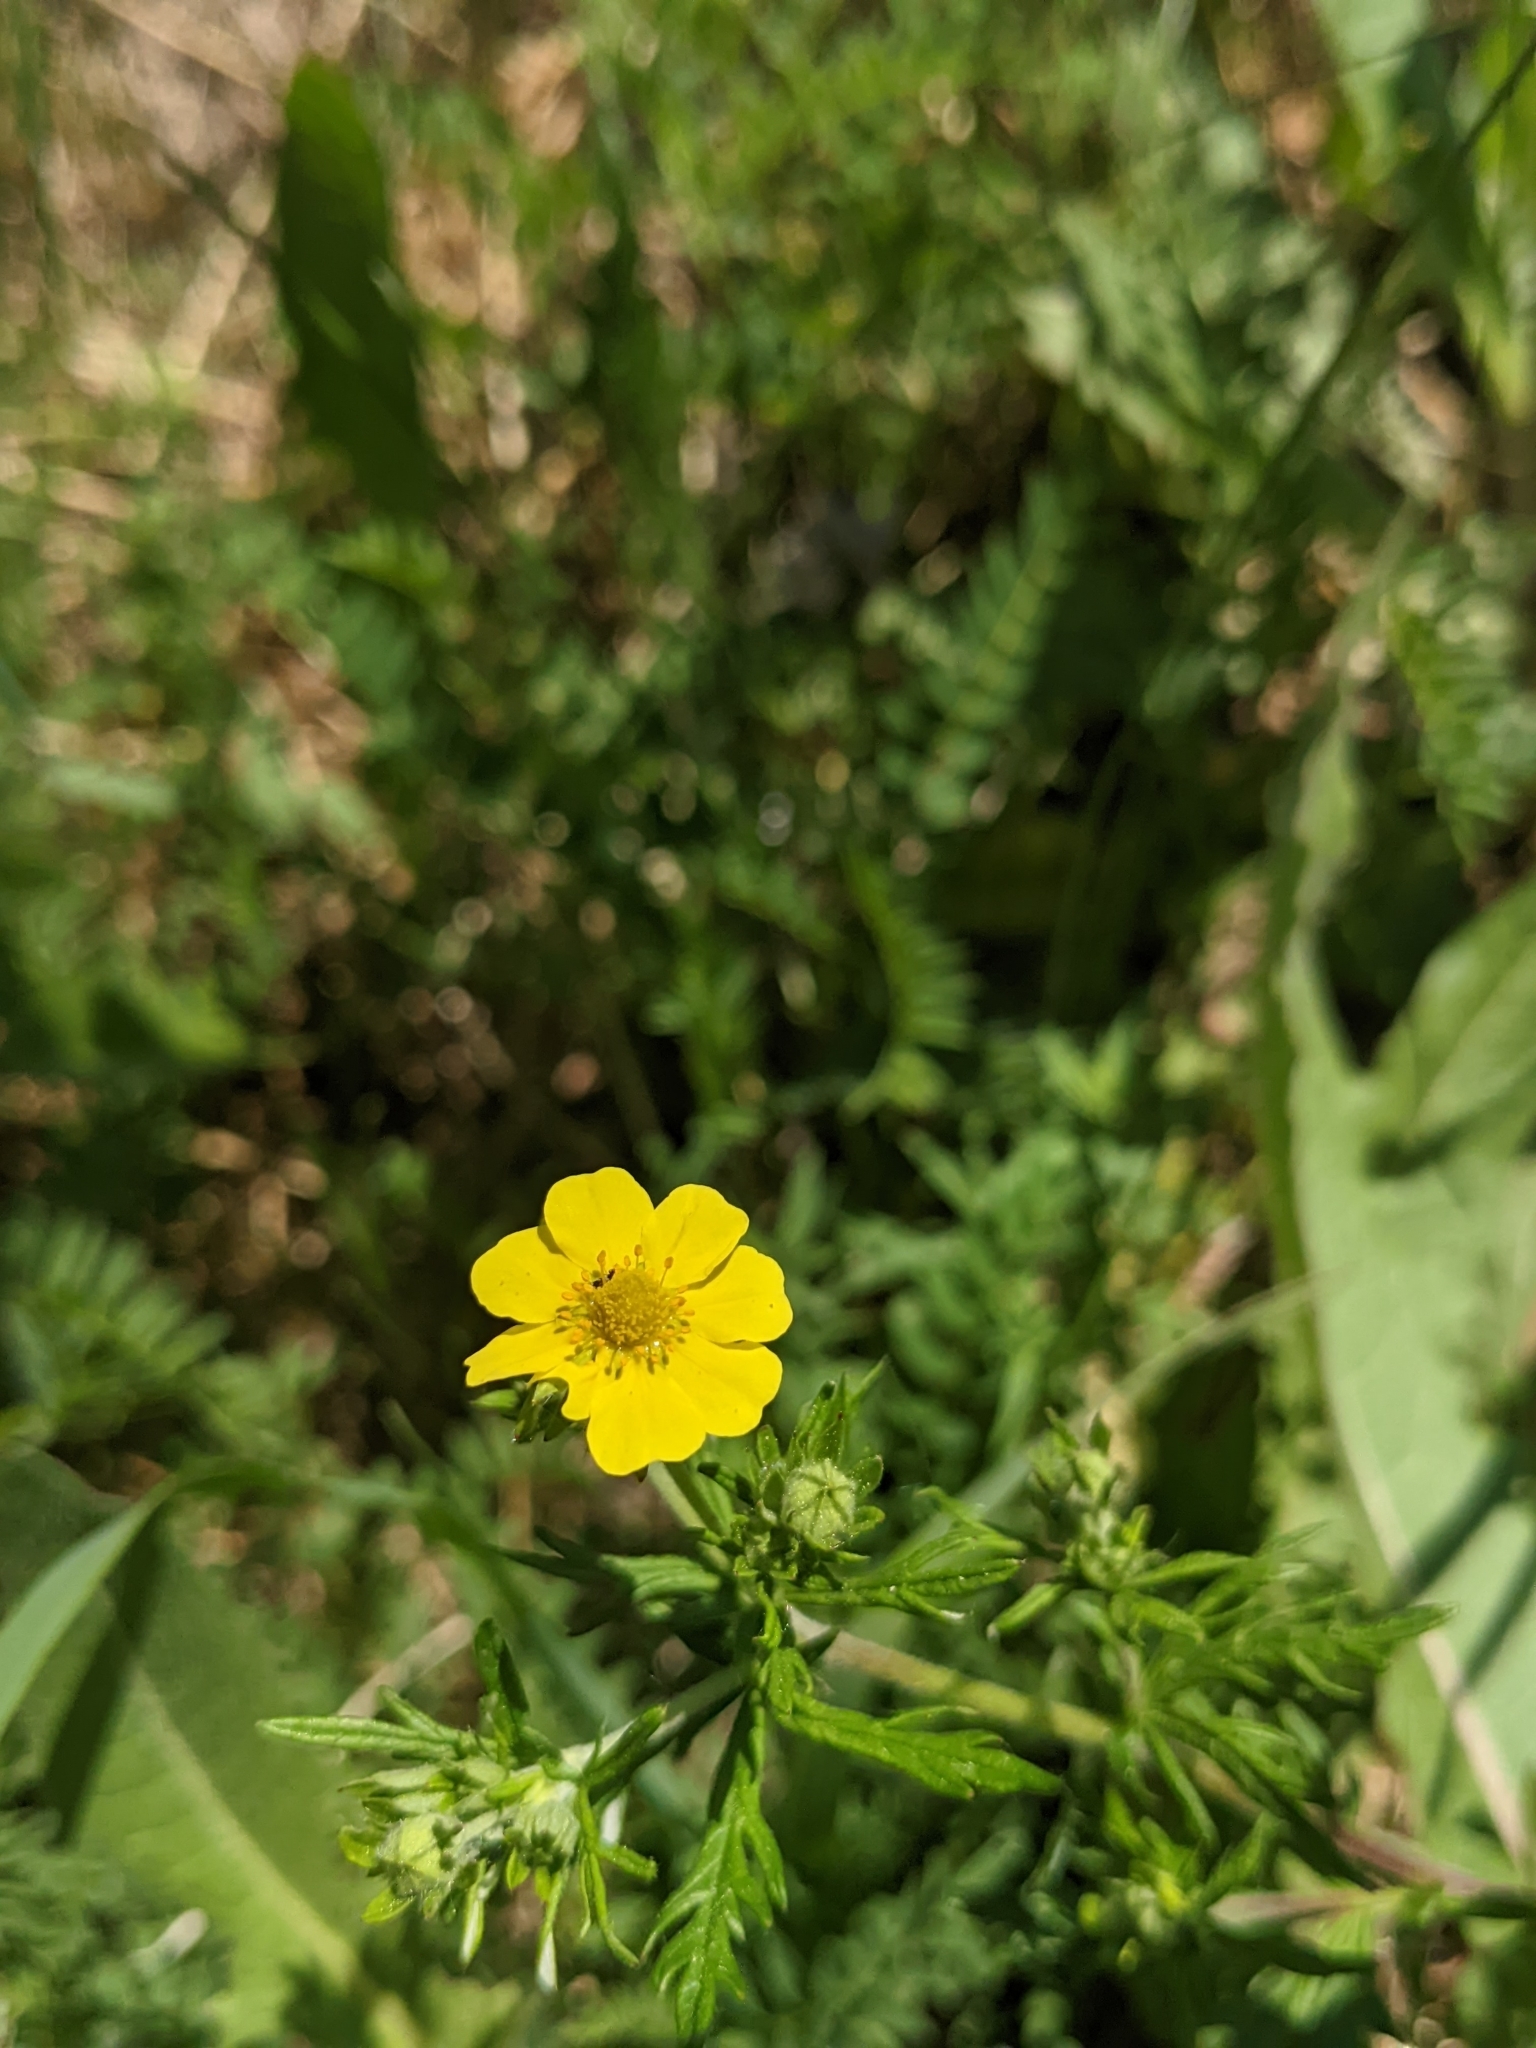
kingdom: Plantae
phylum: Tracheophyta
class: Magnoliopsida
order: Rosales
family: Rosaceae
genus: Potentilla
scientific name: Potentilla argentea
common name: Hoary cinquefoil
